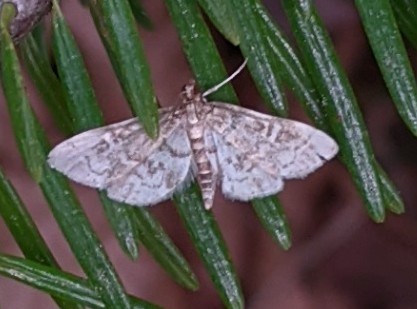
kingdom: Animalia
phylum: Arthropoda
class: Insecta
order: Lepidoptera
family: Crambidae
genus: Anageshna
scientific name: Anageshna primordialis
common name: Yellow-spotted webworm moth
